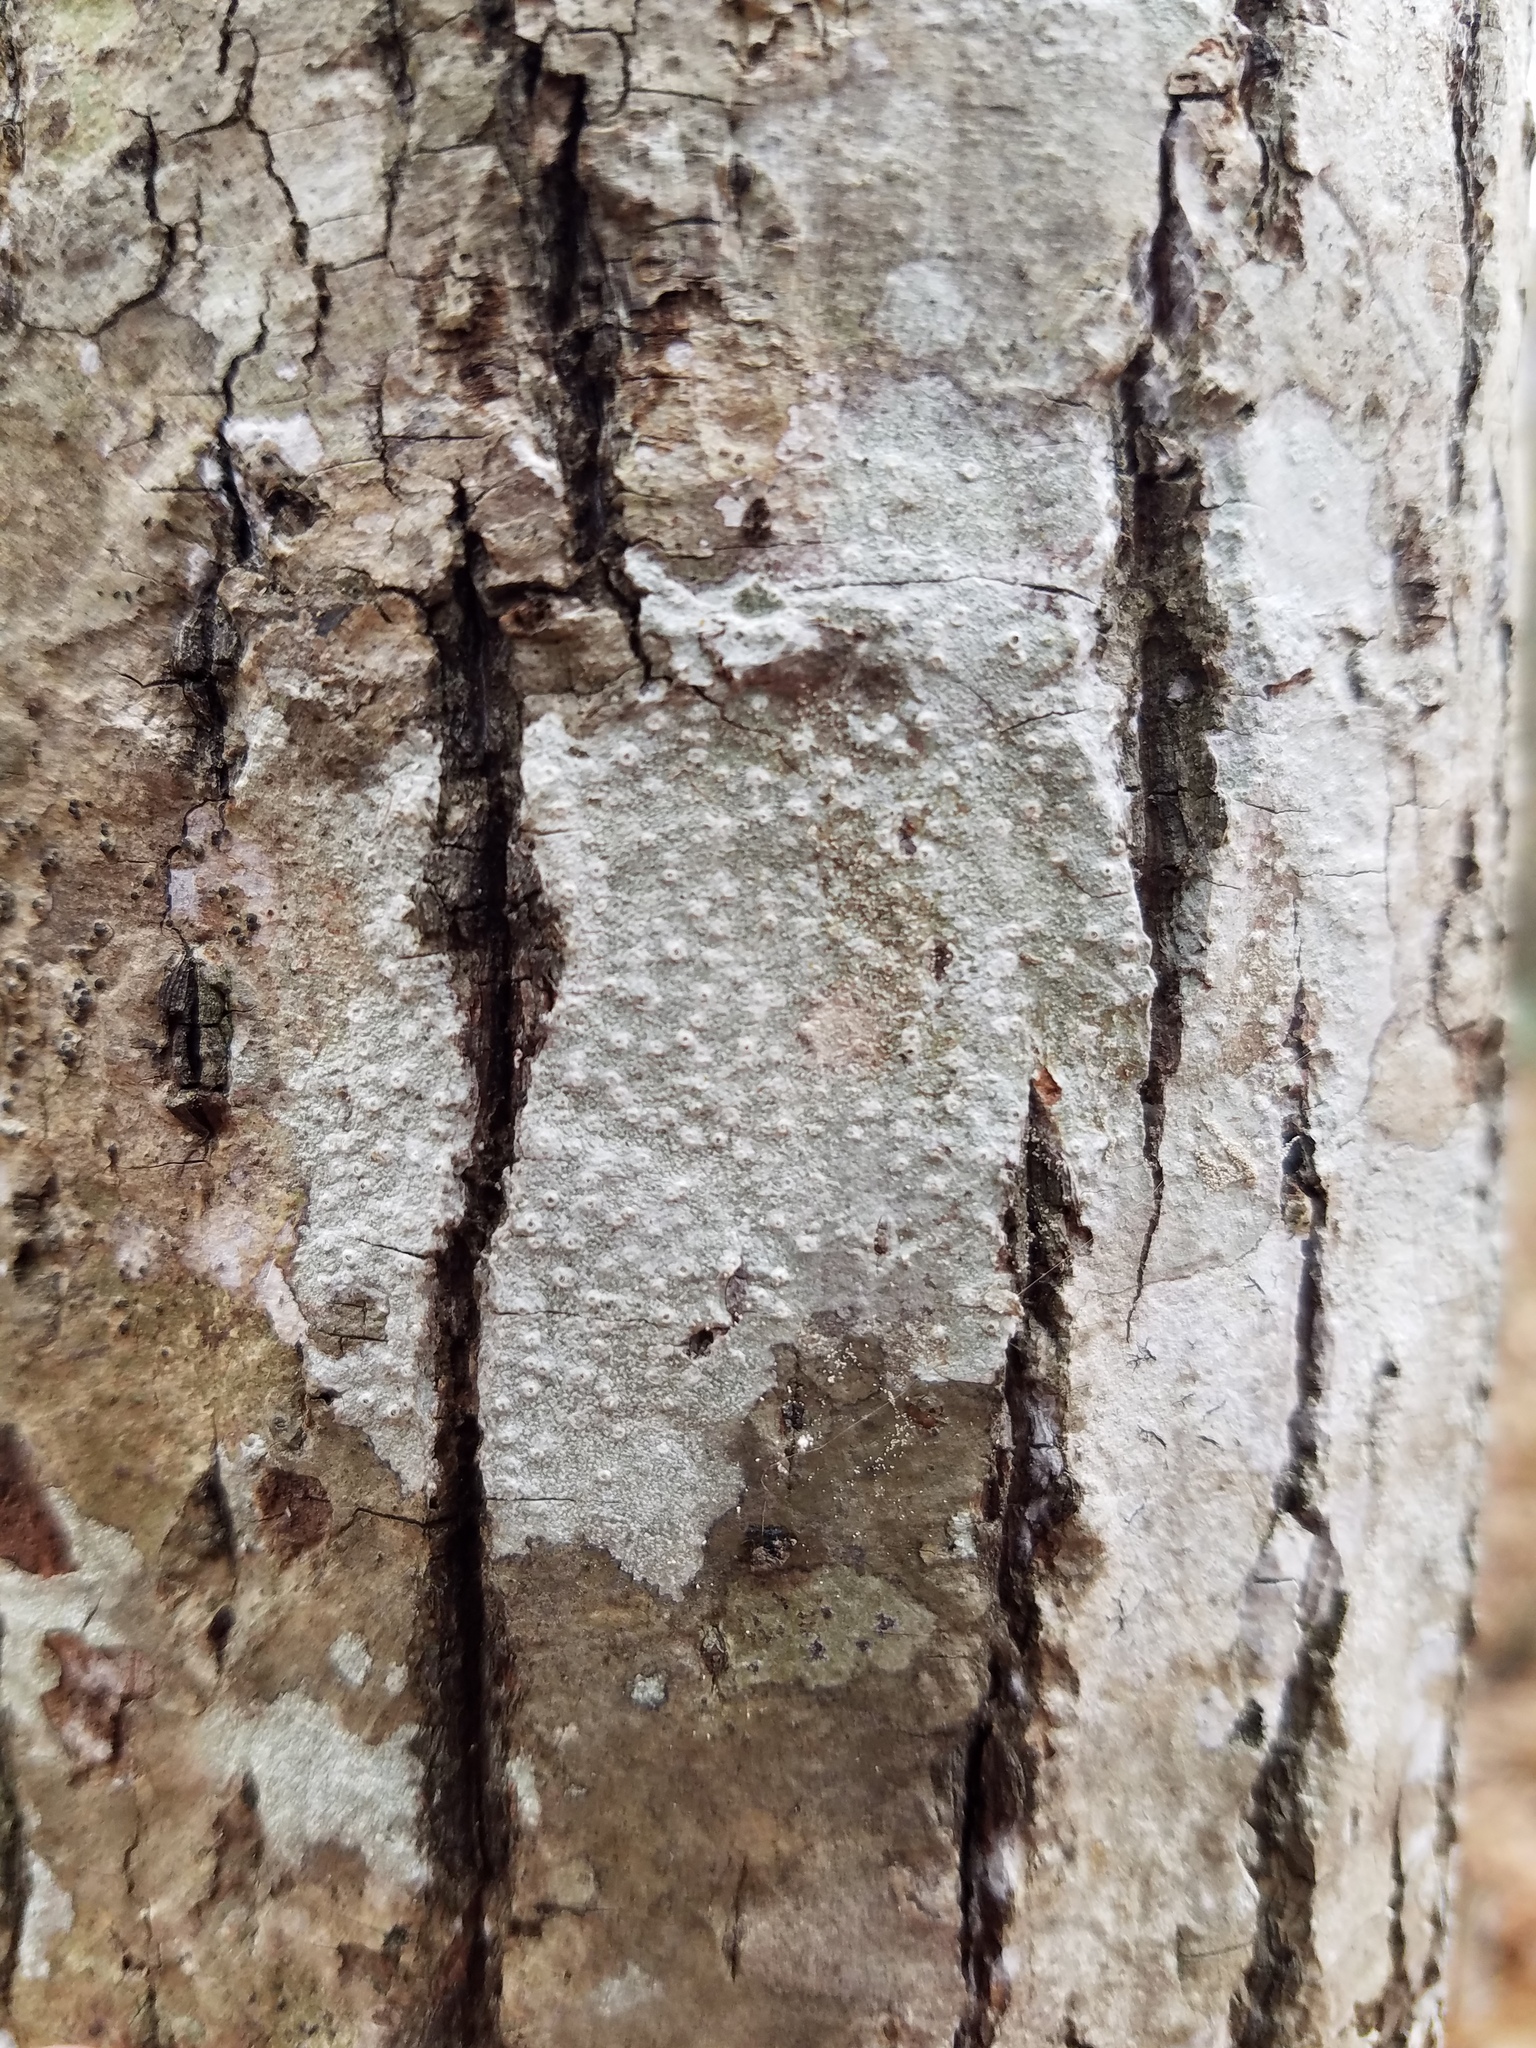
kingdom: Fungi
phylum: Ascomycota
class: Lecanoromycetes
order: Ostropales
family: Graphidaceae
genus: Thelotrema
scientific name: Thelotrema subtile
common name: Delicate barnacles lichen
